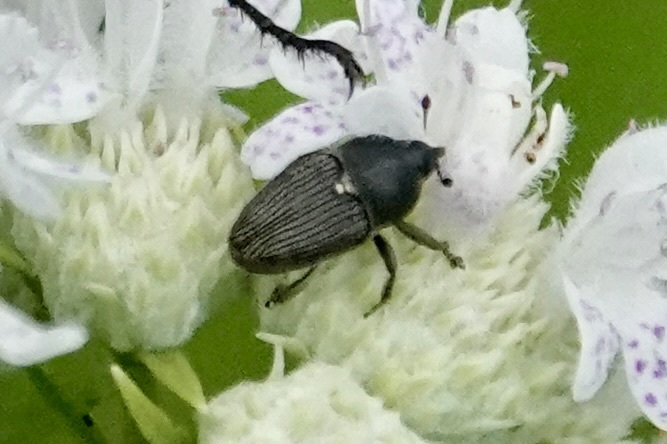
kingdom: Animalia
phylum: Arthropoda
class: Insecta
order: Coleoptera
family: Curculionidae
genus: Odontocorynus
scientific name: Odontocorynus salebrosus
